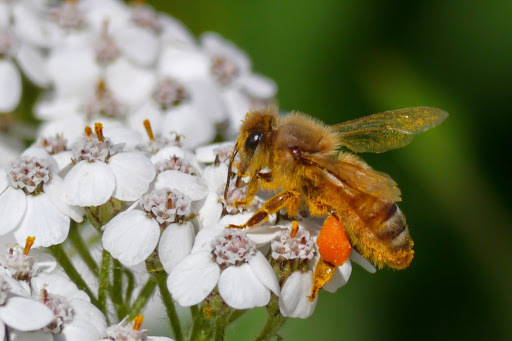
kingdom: Animalia
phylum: Arthropoda
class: Insecta
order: Hymenoptera
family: Apidae
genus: Apis
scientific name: Apis mellifera
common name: Honey bee
